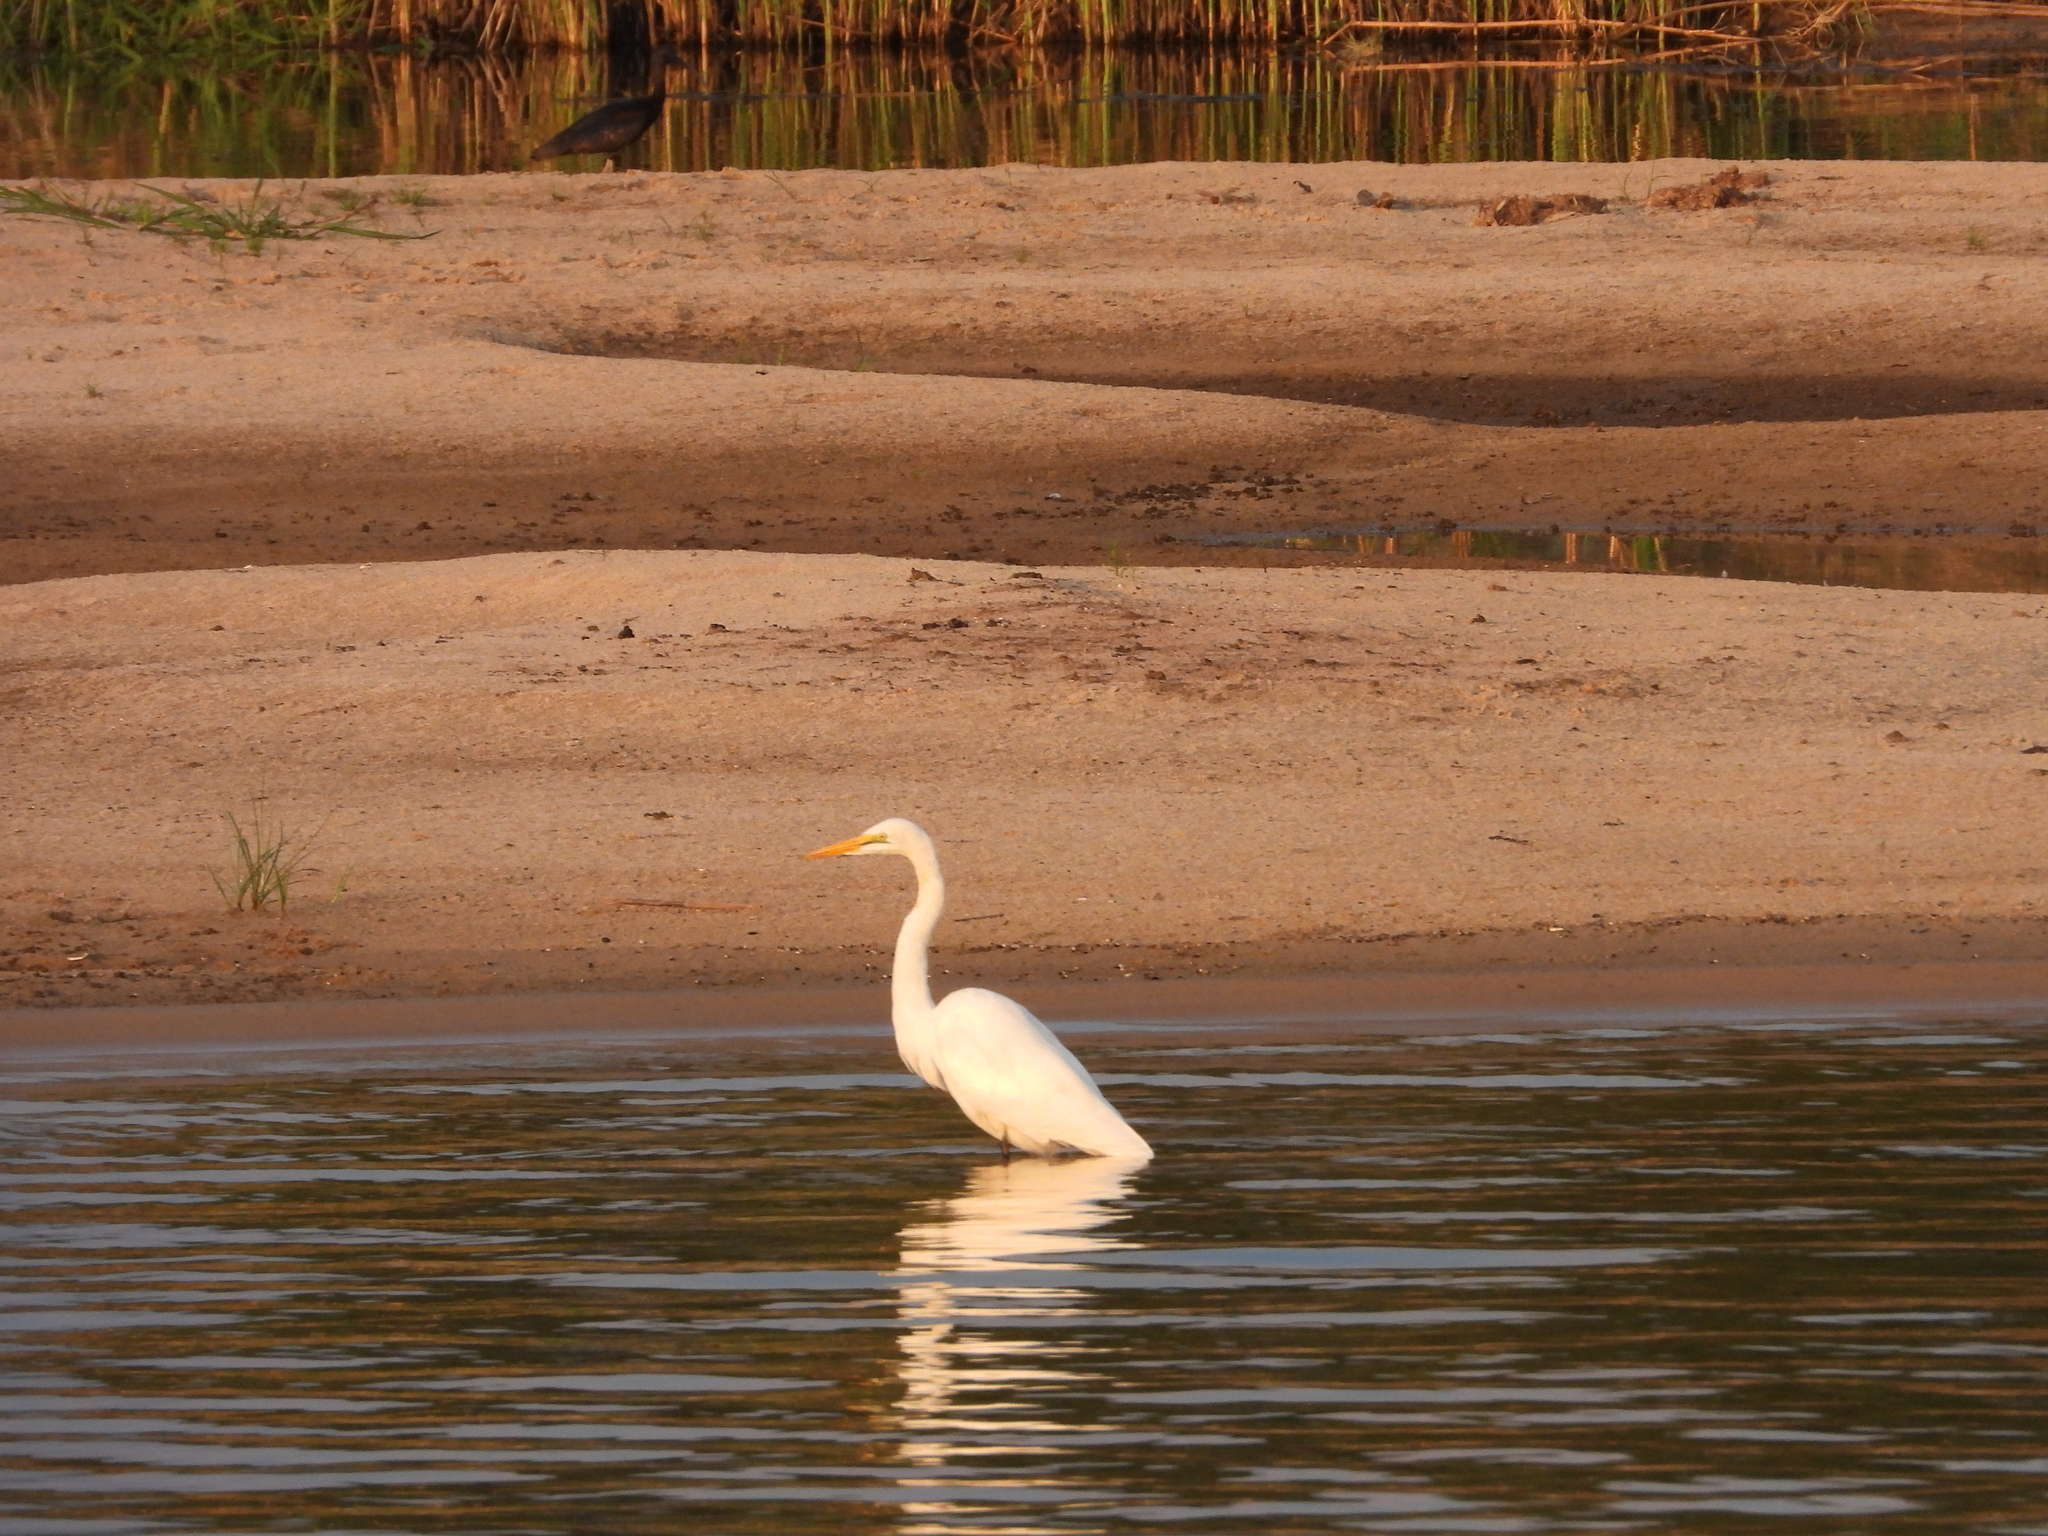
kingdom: Animalia
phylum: Chordata
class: Aves
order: Pelecaniformes
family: Ardeidae
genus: Ardea
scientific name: Ardea alba
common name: Great egret
